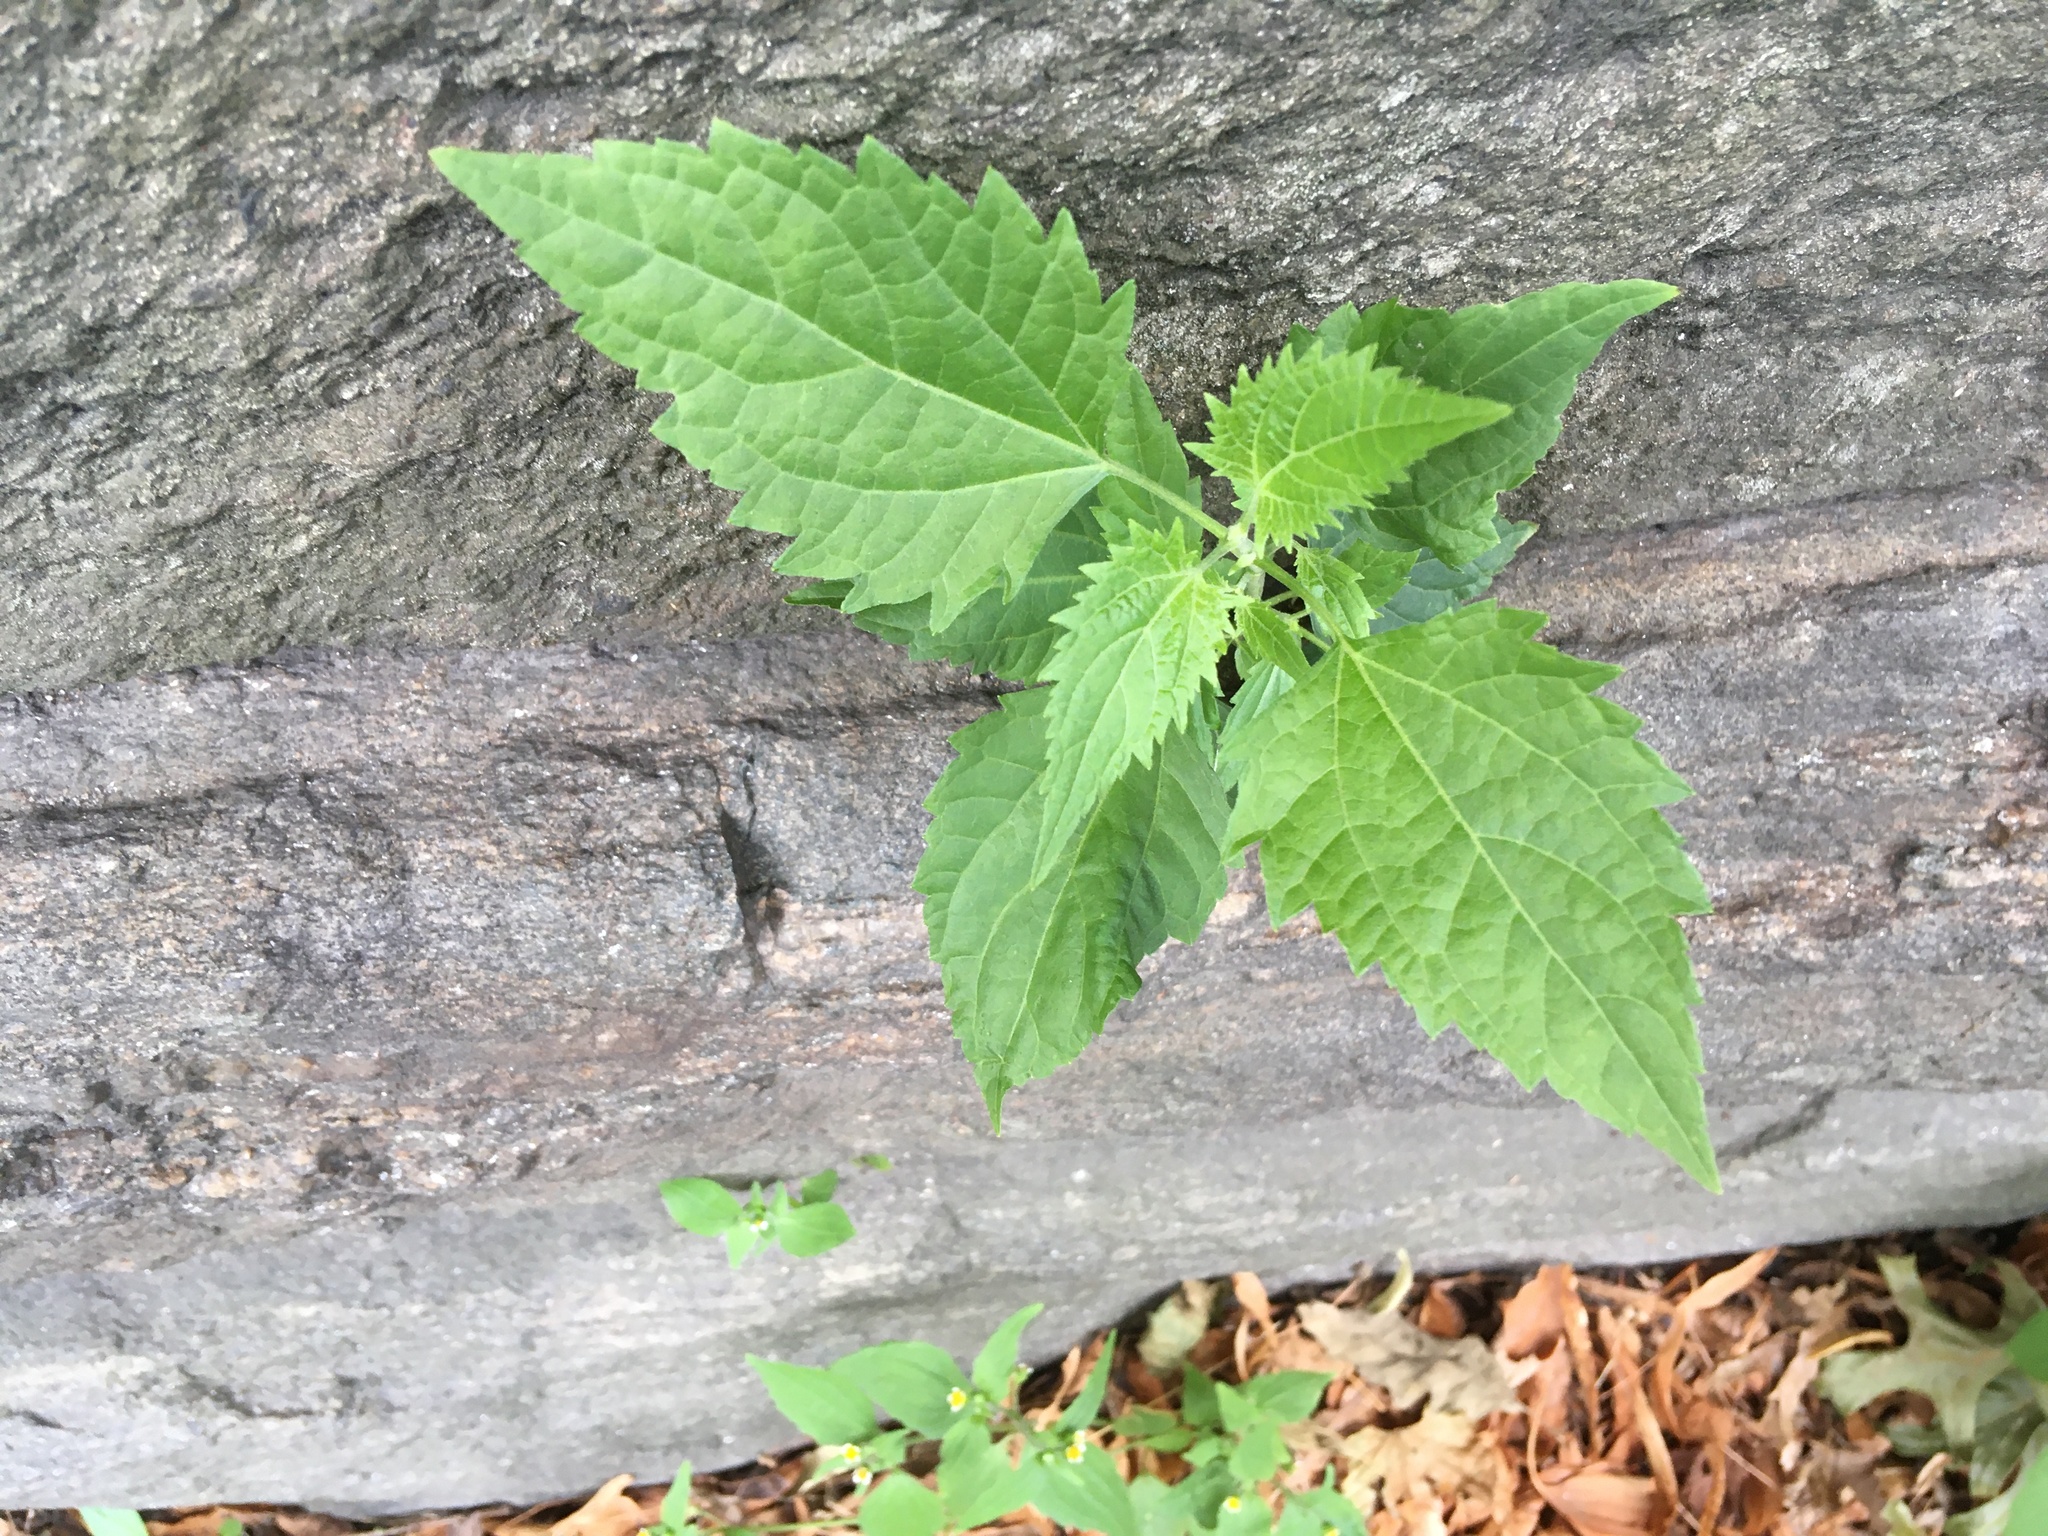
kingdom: Plantae
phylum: Tracheophyta
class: Magnoliopsida
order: Asterales
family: Asteraceae
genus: Ageratina
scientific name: Ageratina altissima
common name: White snakeroot
